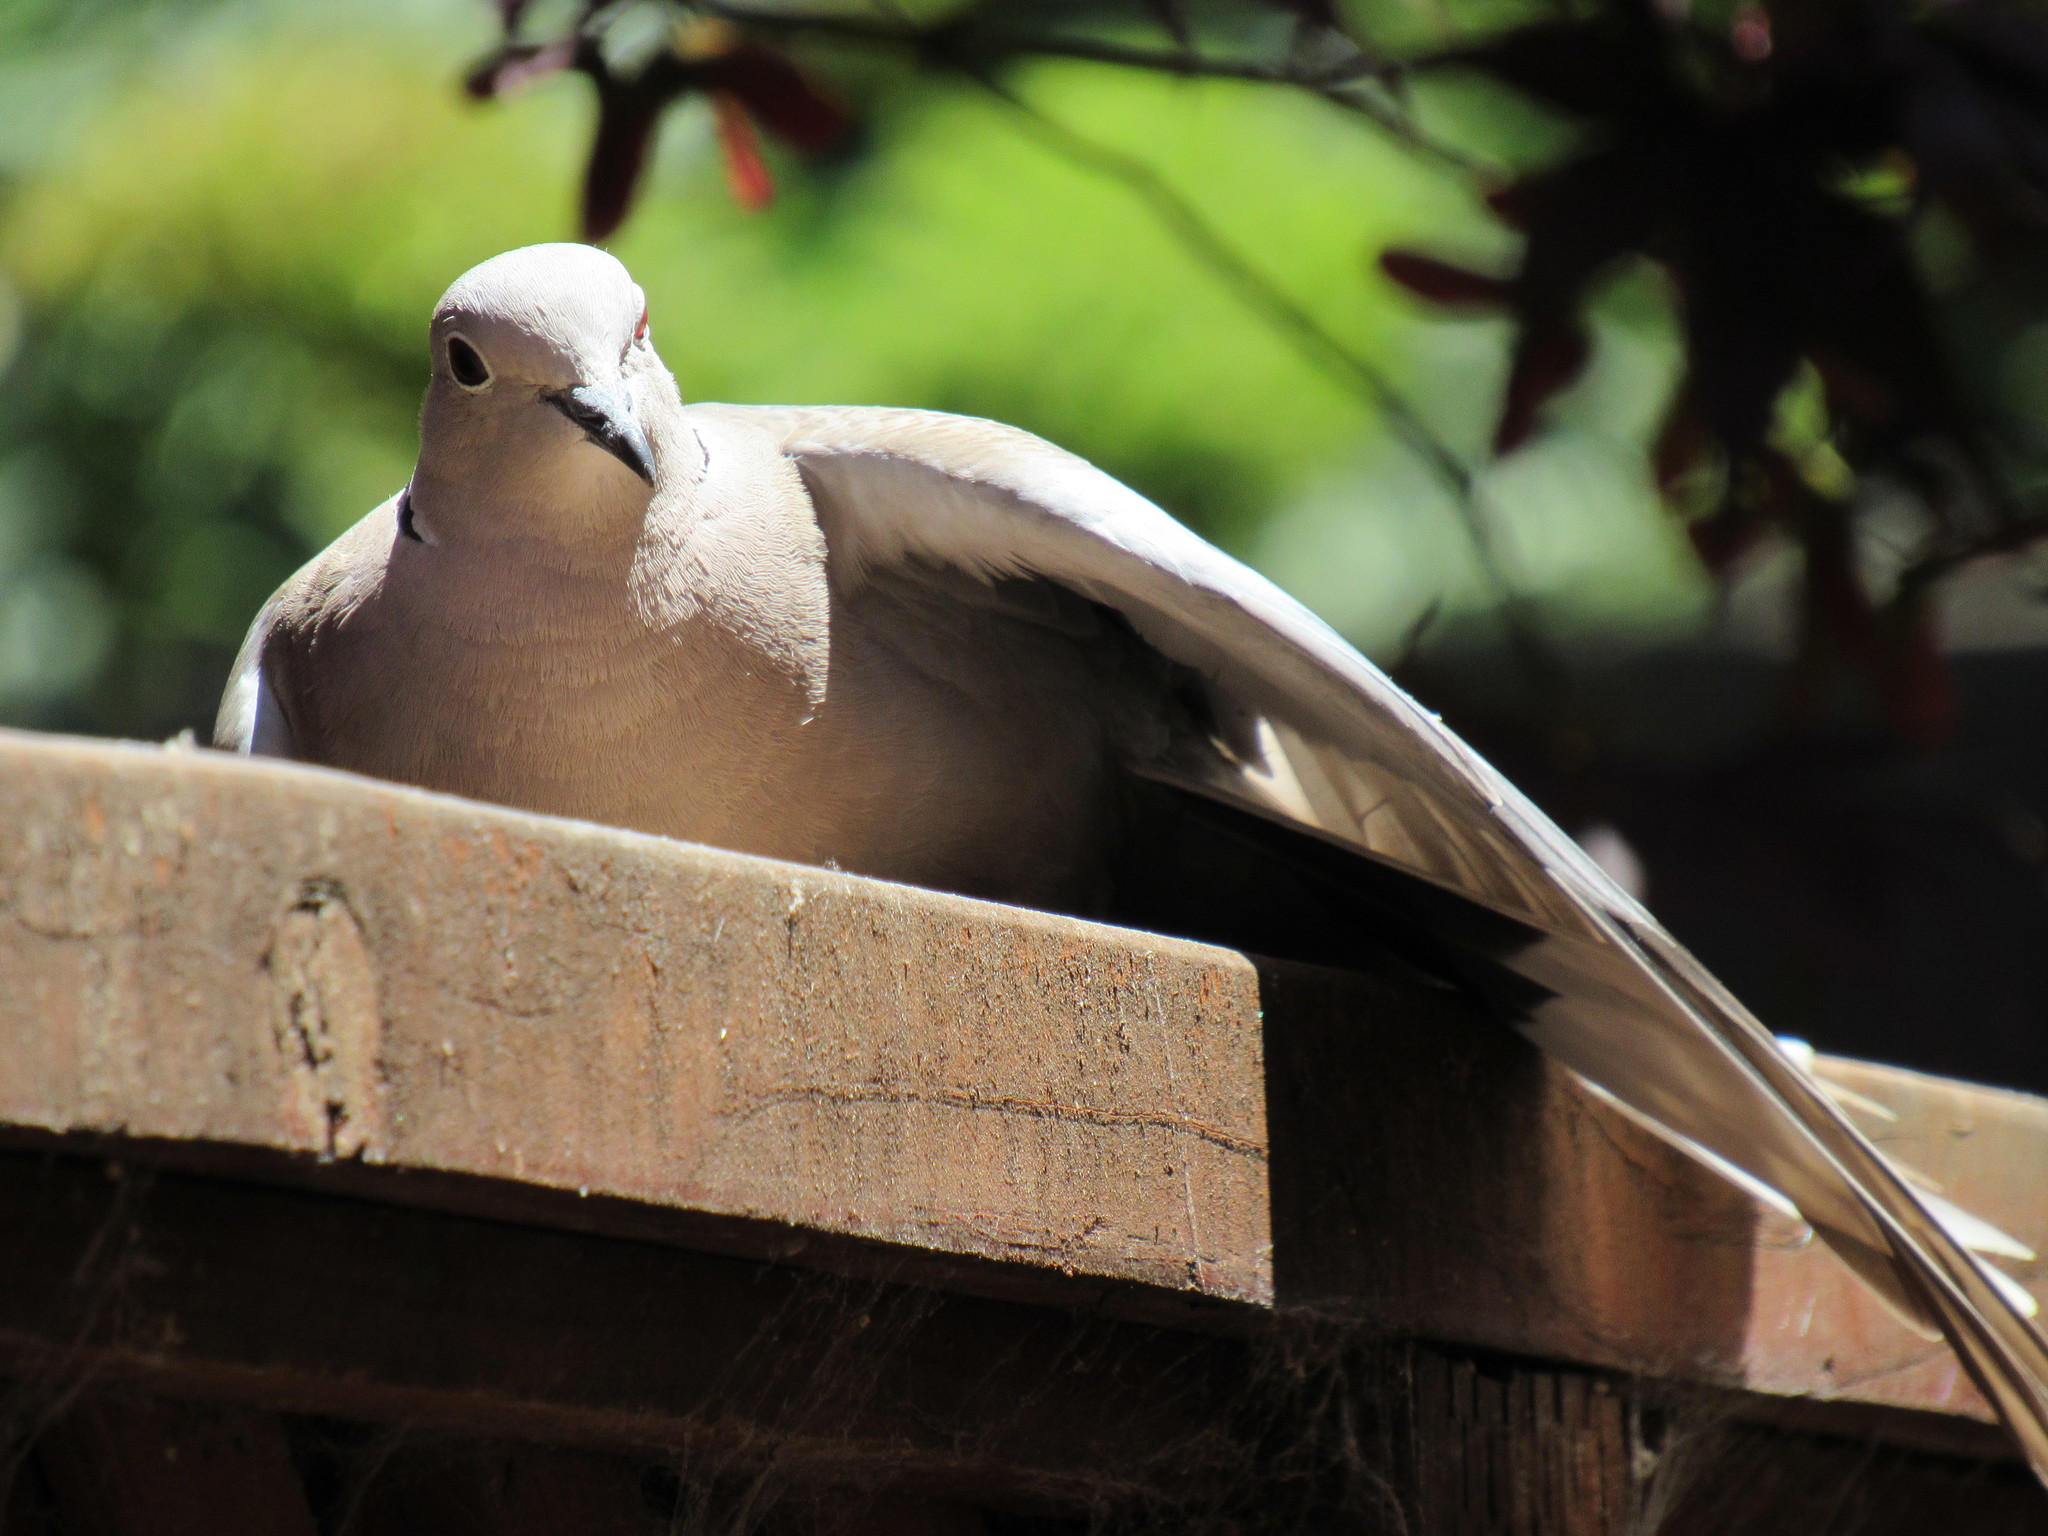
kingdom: Animalia
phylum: Chordata
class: Aves
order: Columbiformes
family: Columbidae
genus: Streptopelia
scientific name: Streptopelia decaocto
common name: Eurasian collared dove
